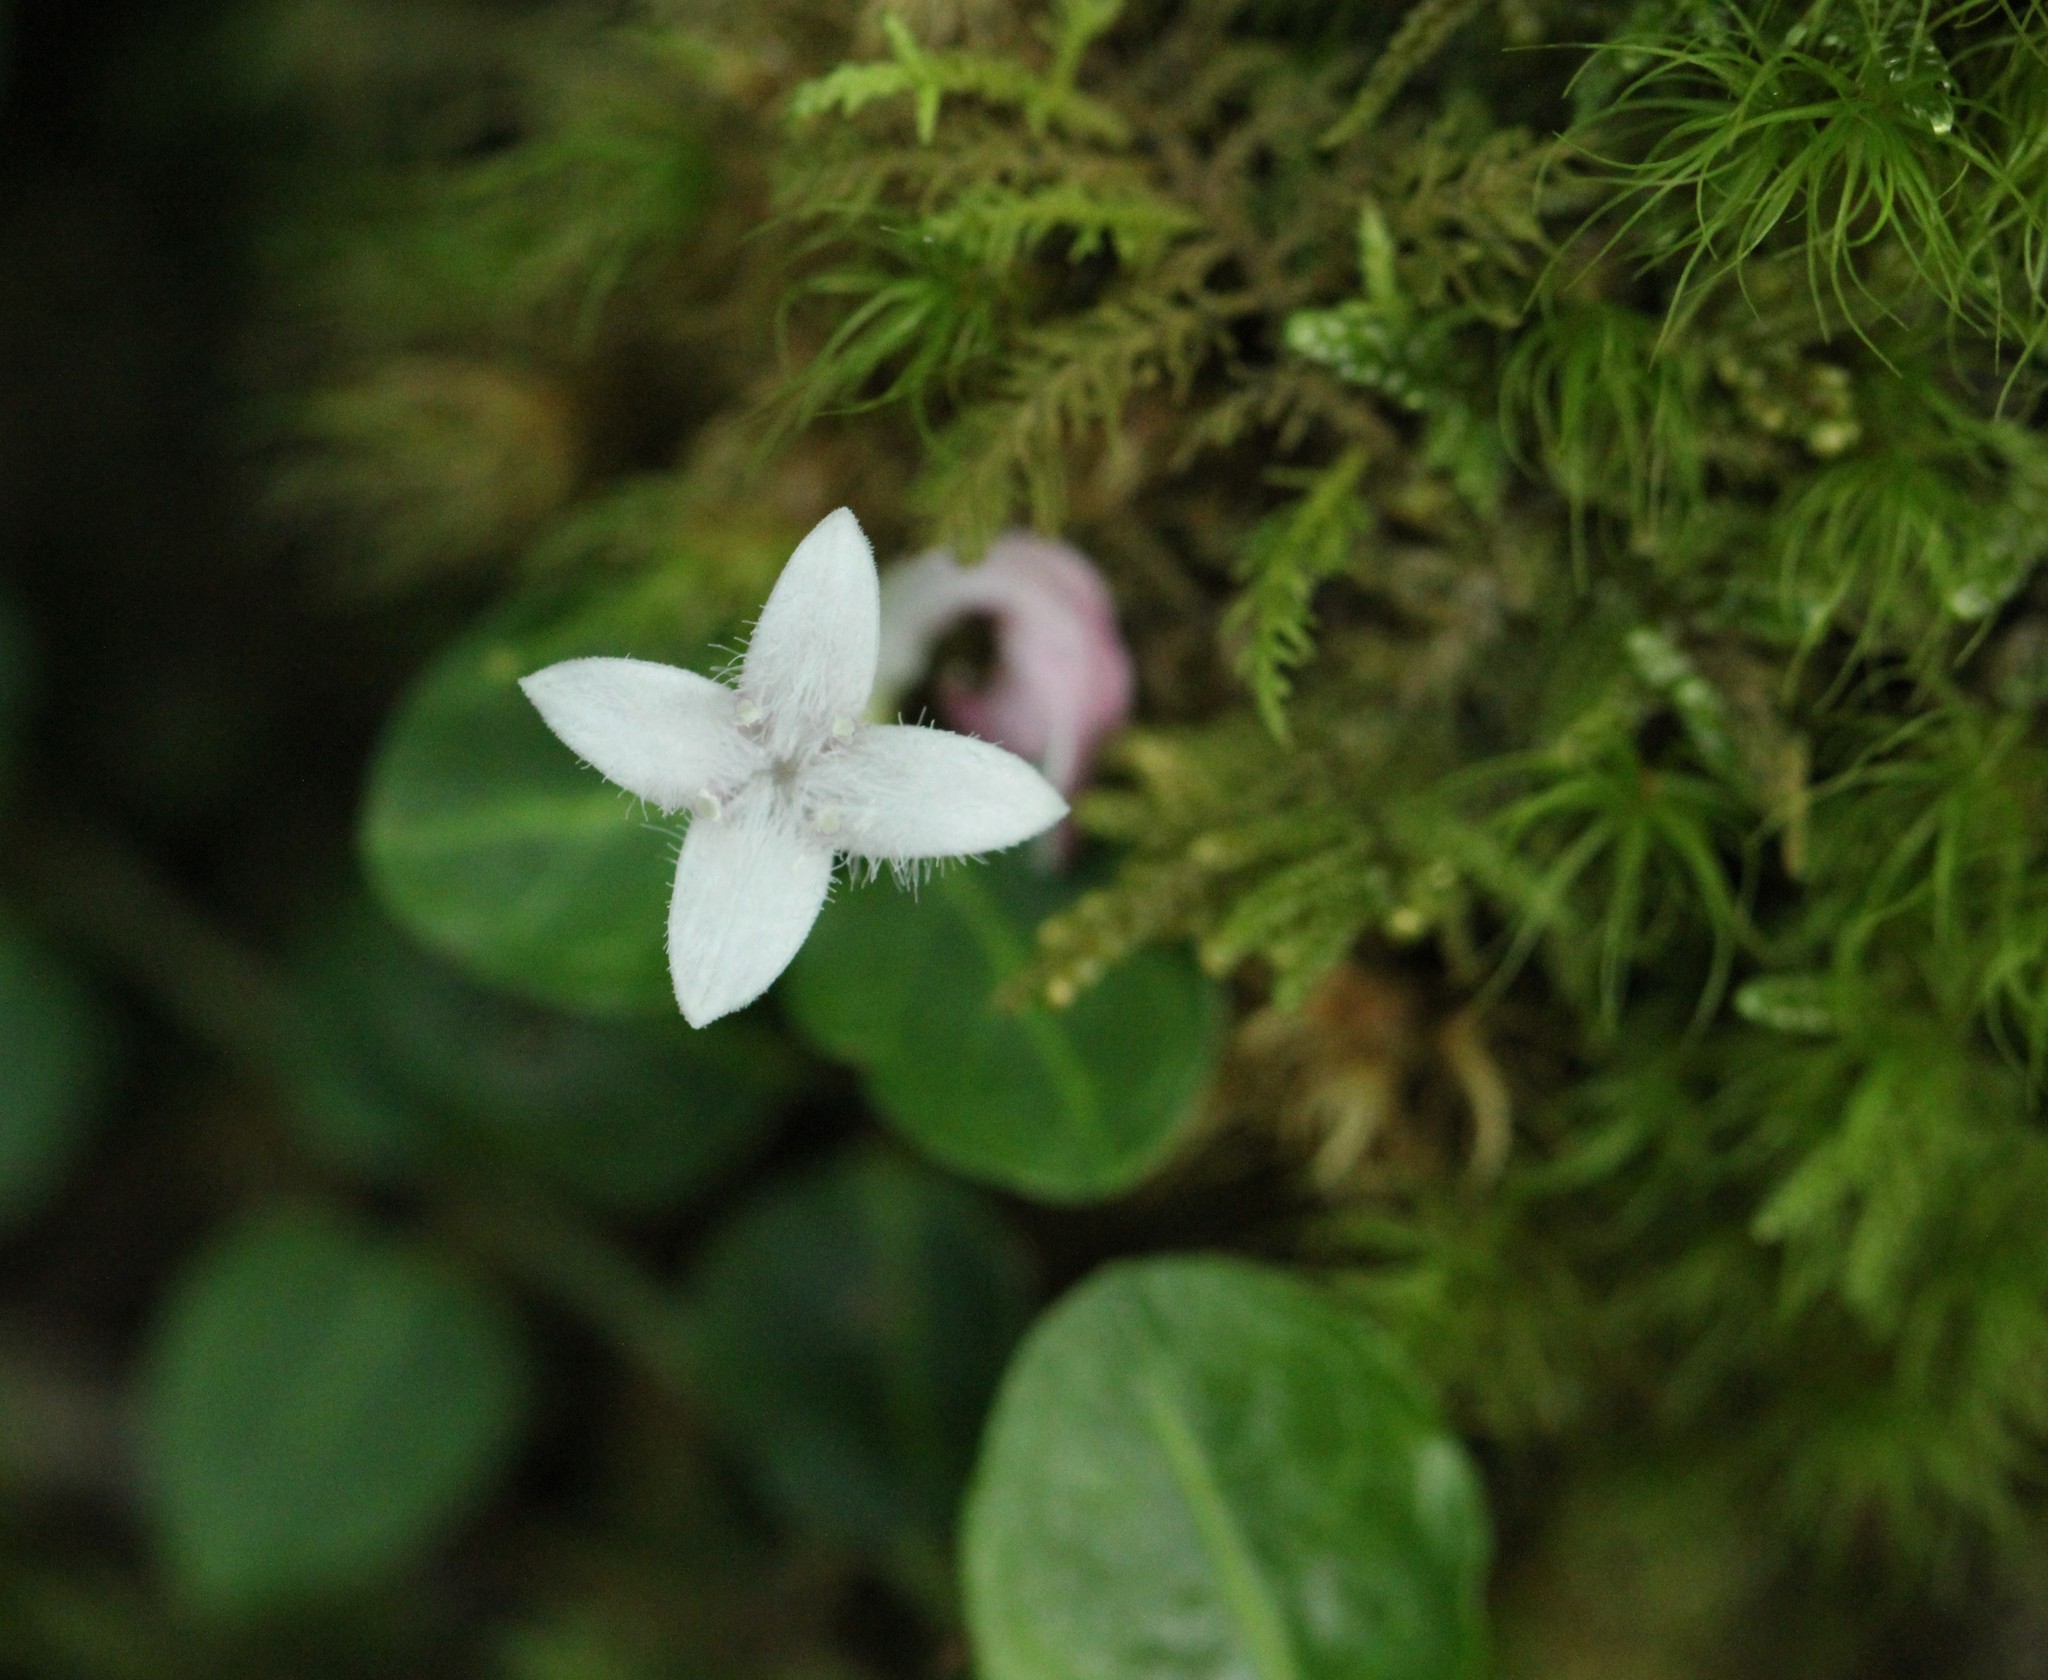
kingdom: Plantae
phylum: Tracheophyta
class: Magnoliopsida
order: Gentianales
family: Rubiaceae
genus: Mitchella
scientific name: Mitchella repens
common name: Partridge-berry
